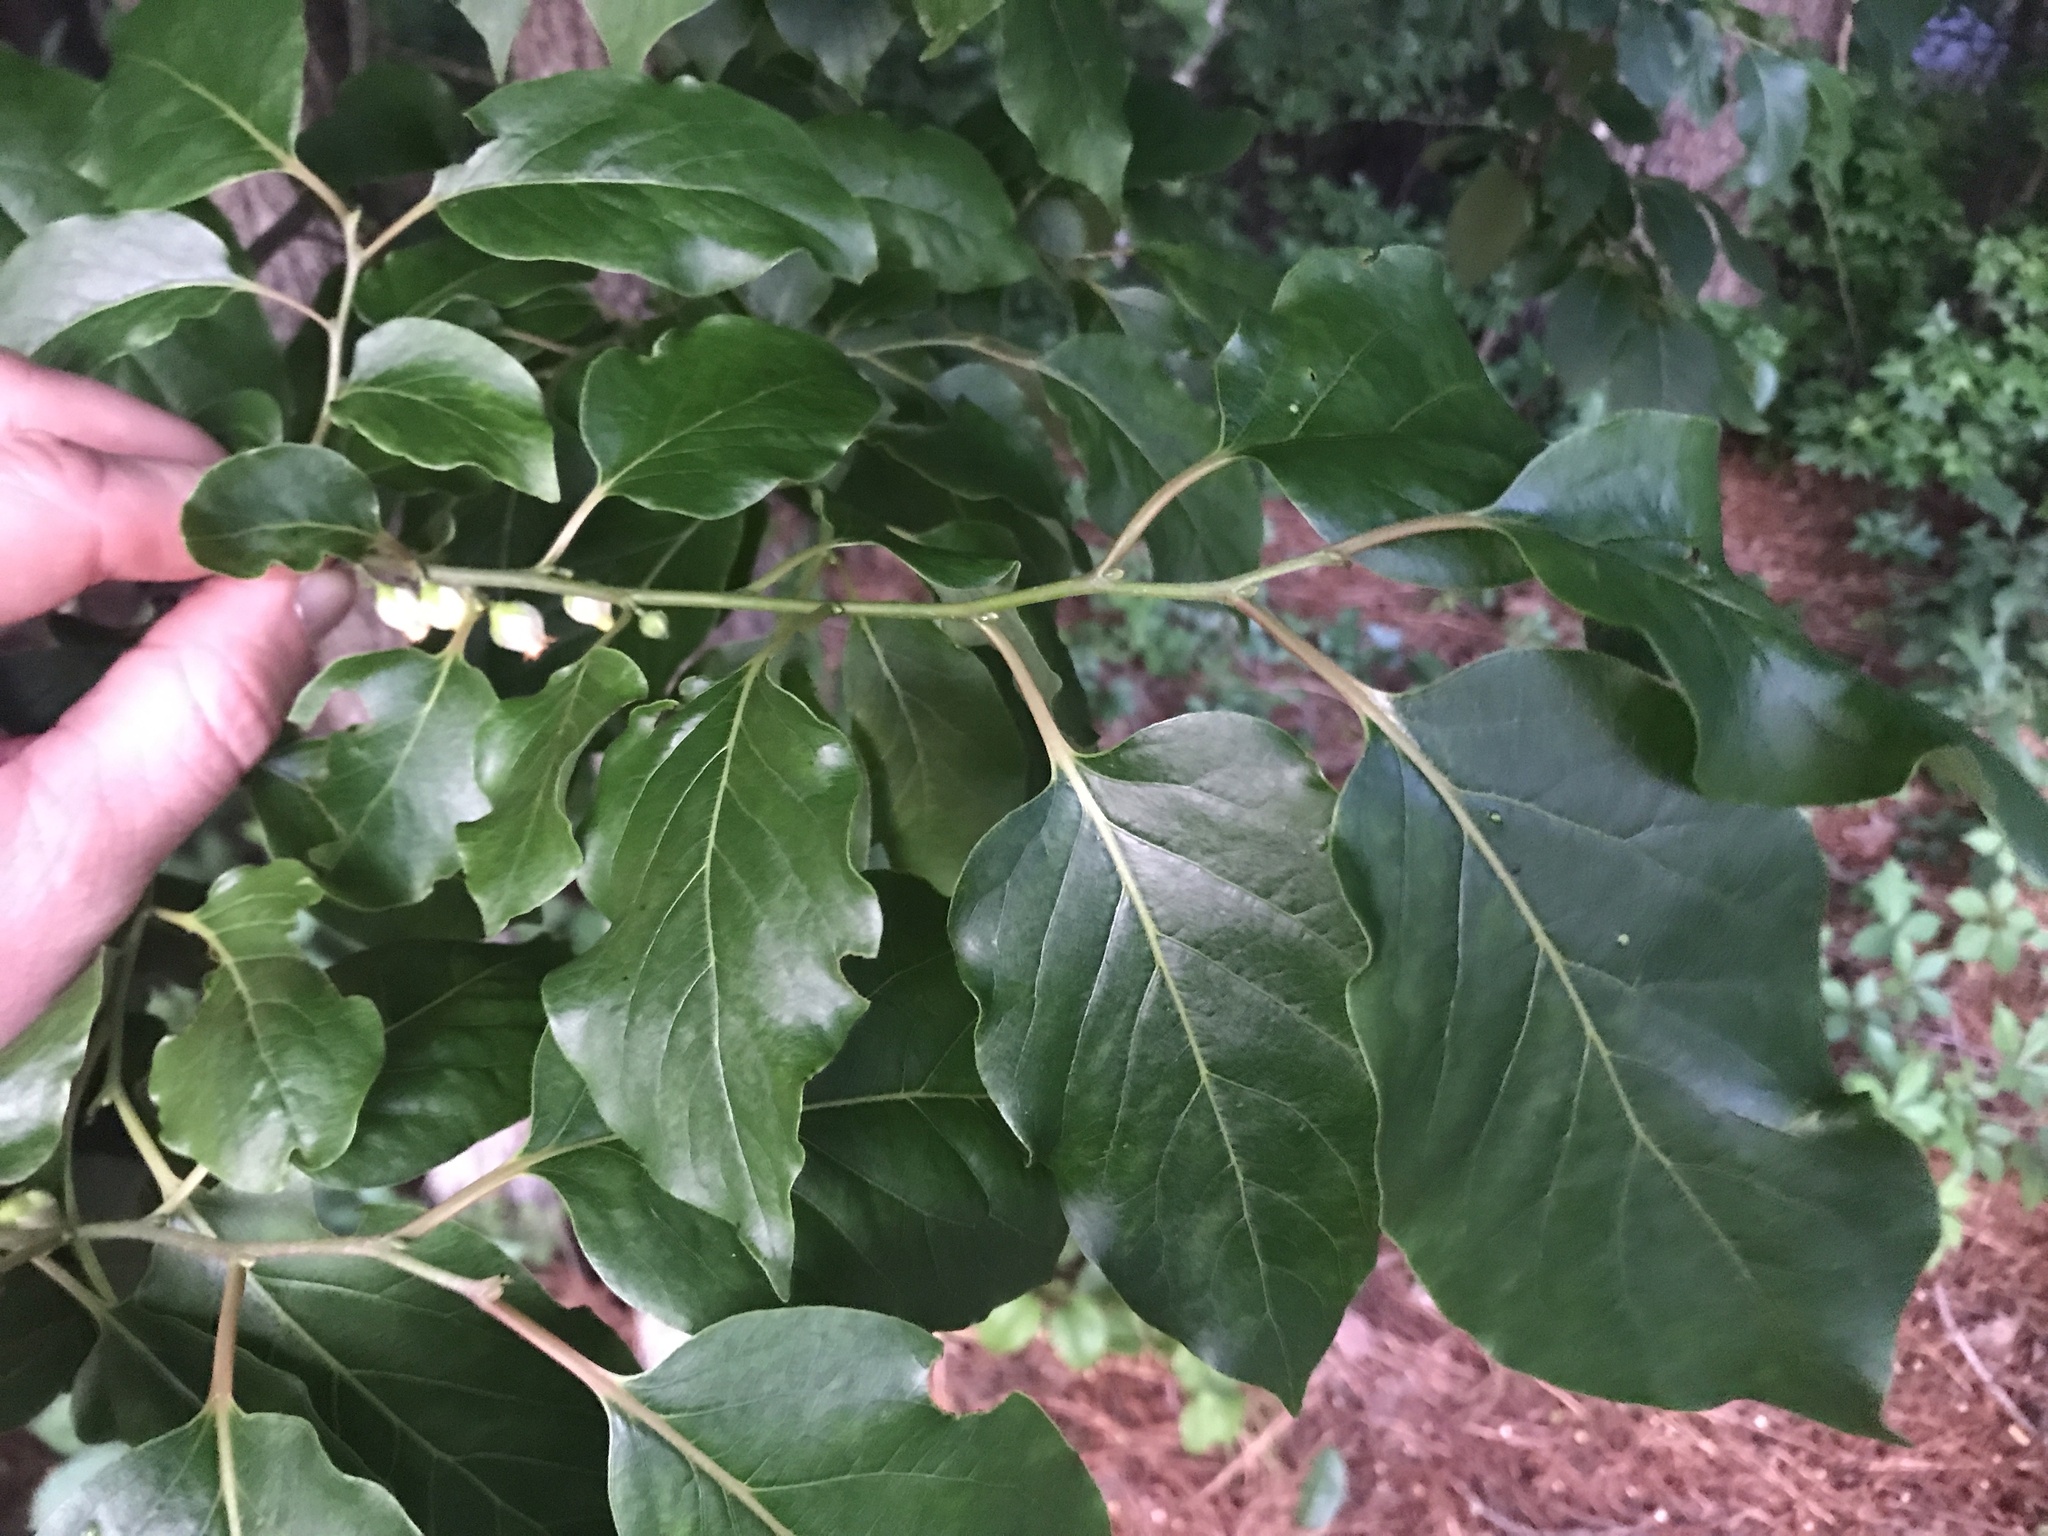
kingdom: Plantae
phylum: Tracheophyta
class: Magnoliopsida
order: Ericales
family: Ebenaceae
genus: Diospyros
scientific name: Diospyros virginiana
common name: Persimmon
